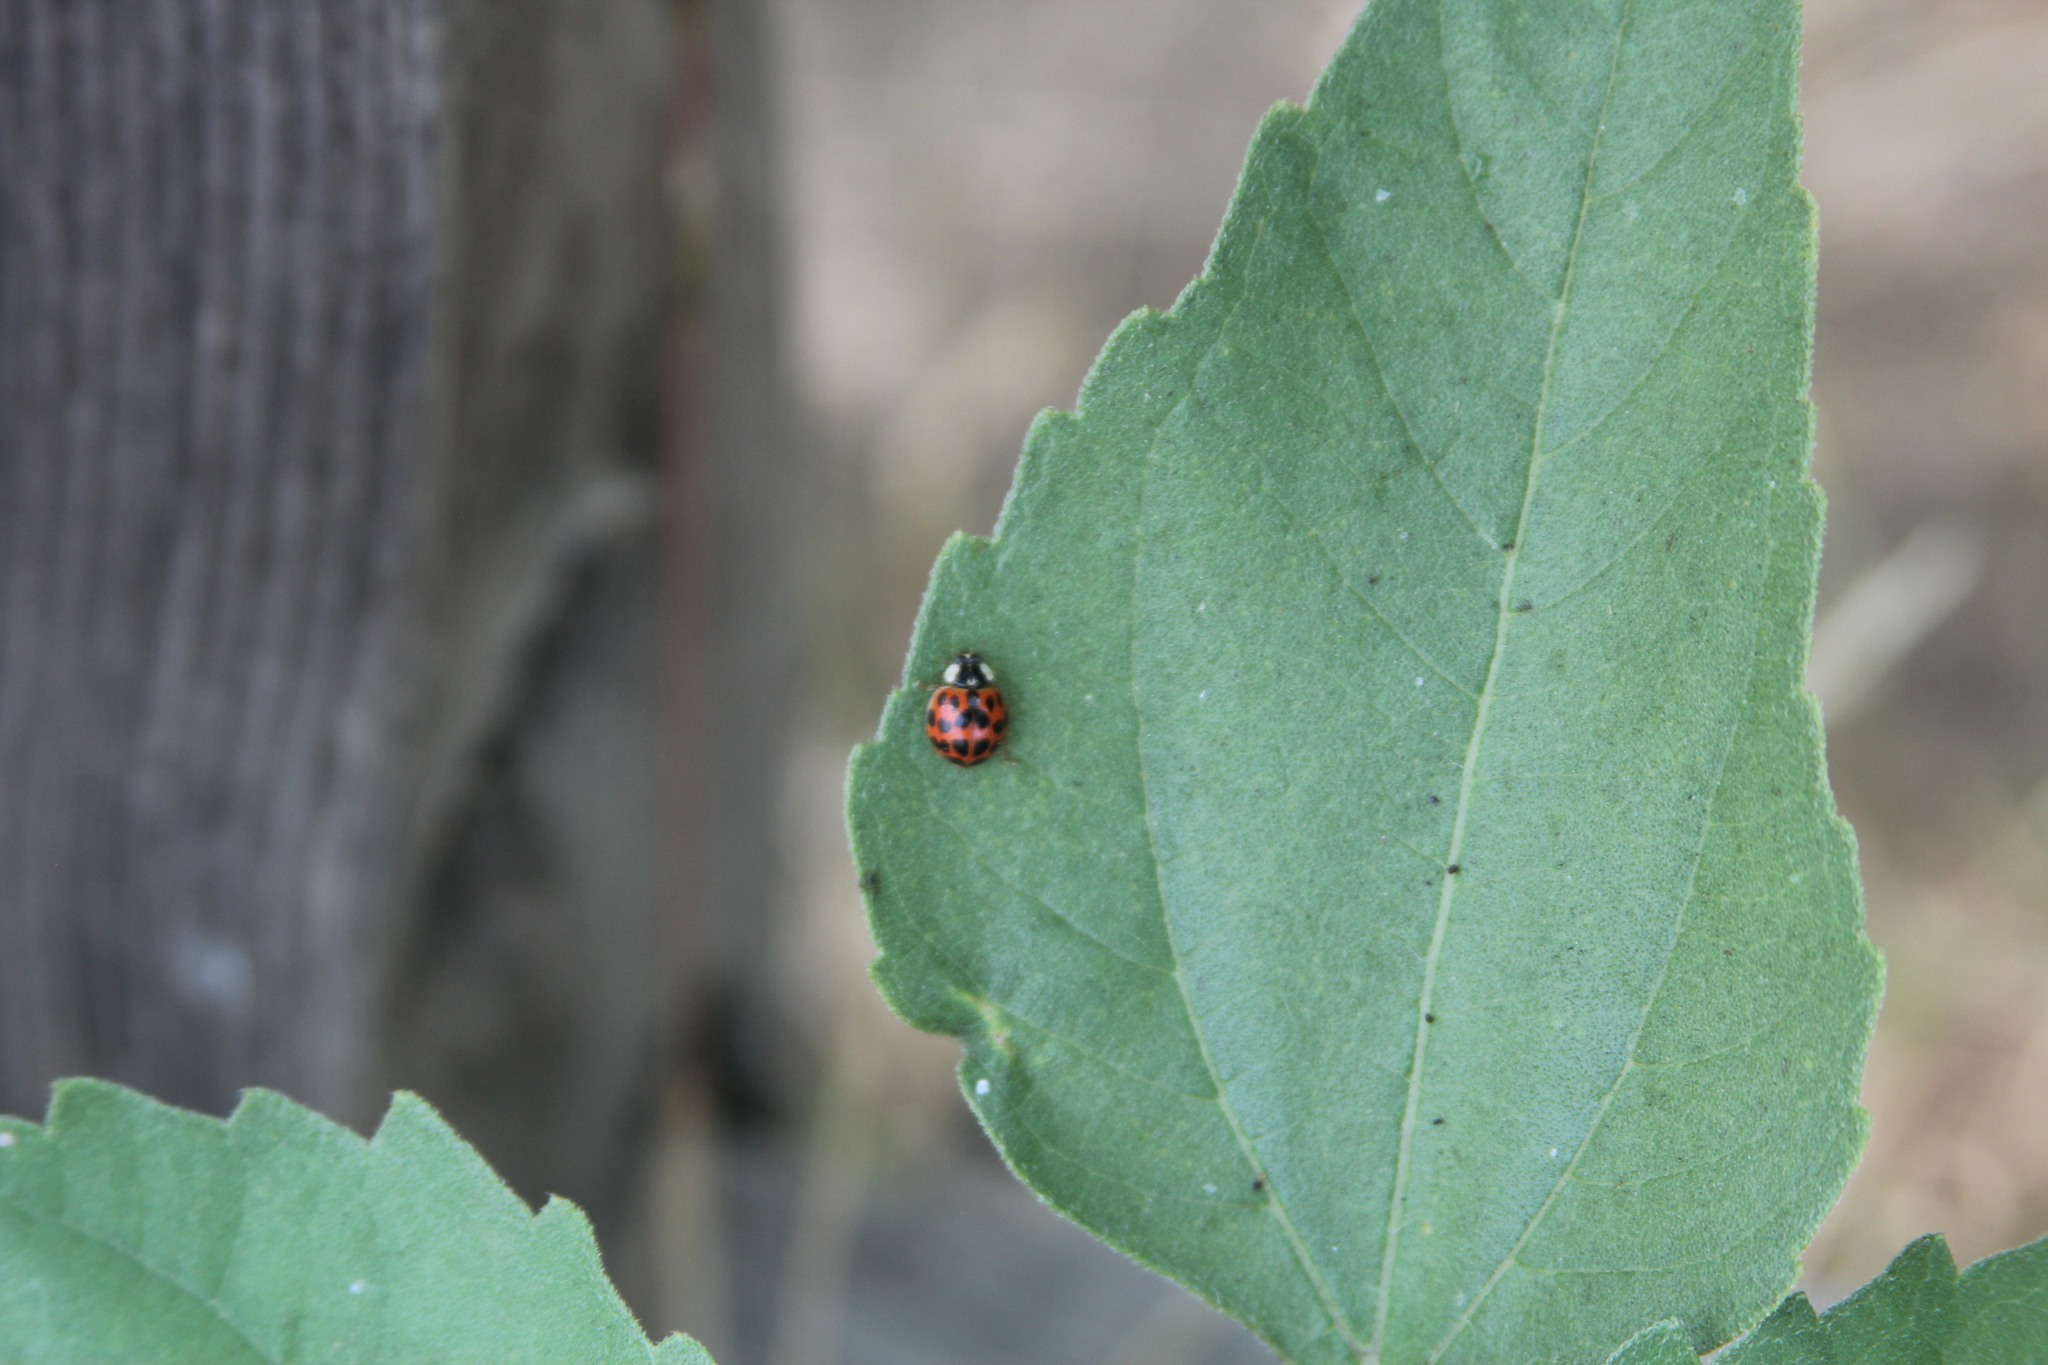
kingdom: Animalia
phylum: Arthropoda
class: Insecta
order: Coleoptera
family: Coccinellidae
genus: Harmonia
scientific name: Harmonia axyridis
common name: Harlequin ladybird
